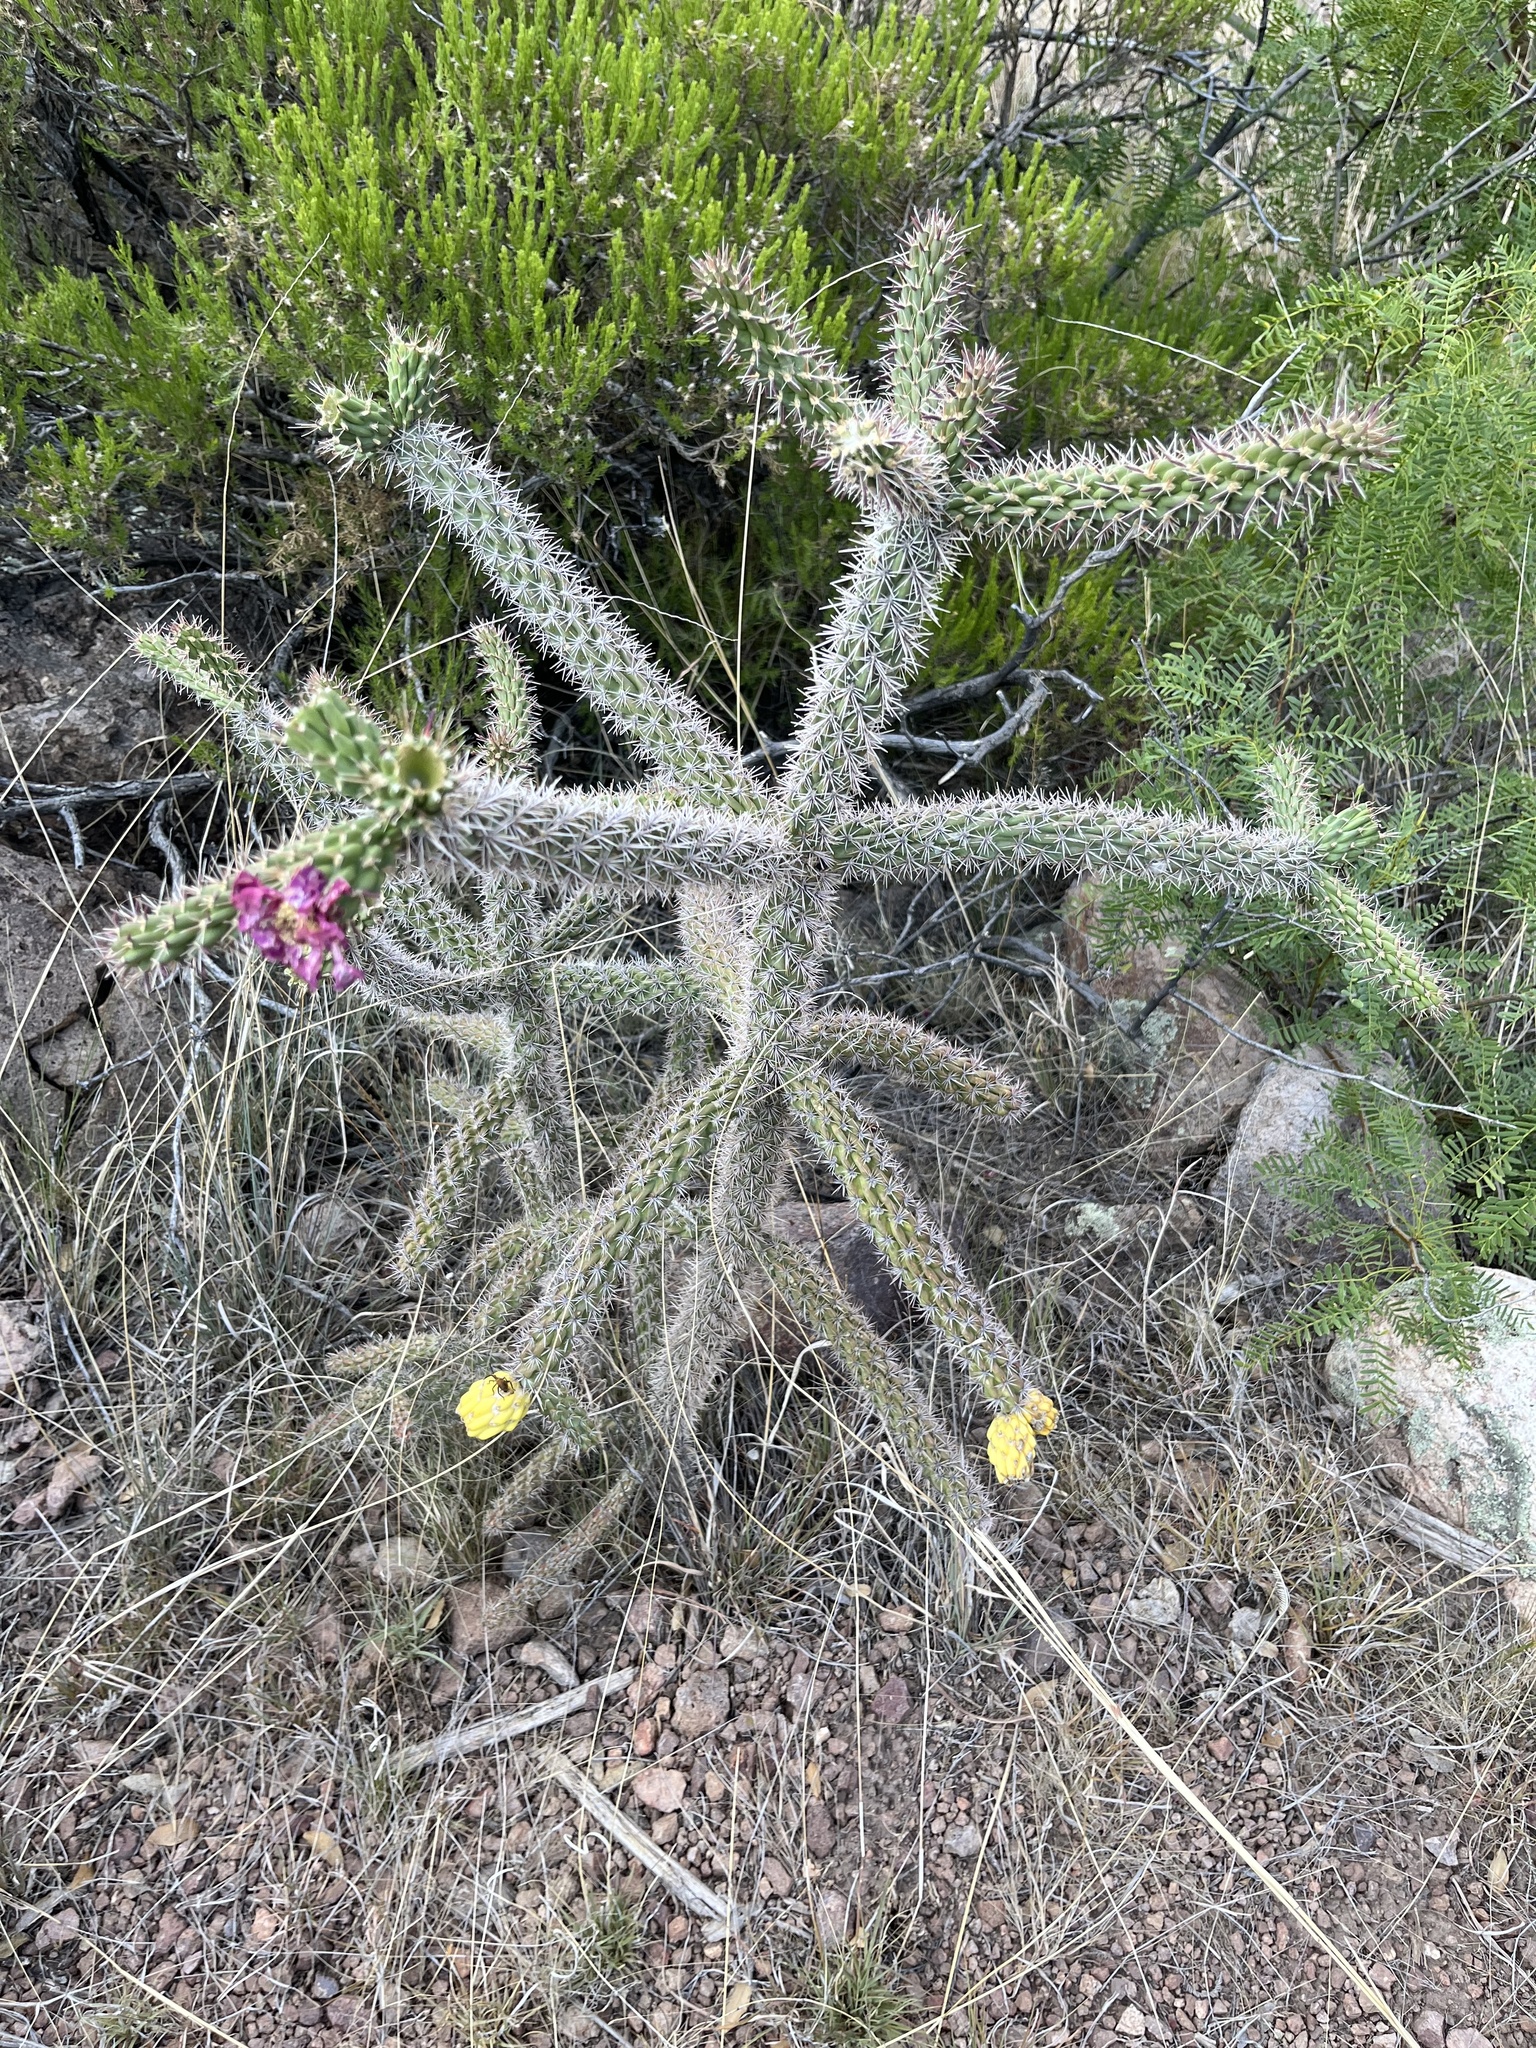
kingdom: Plantae
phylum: Tracheophyta
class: Magnoliopsida
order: Caryophyllales
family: Cactaceae
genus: Cylindropuntia
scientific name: Cylindropuntia imbricata
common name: Candelabrum cactus
